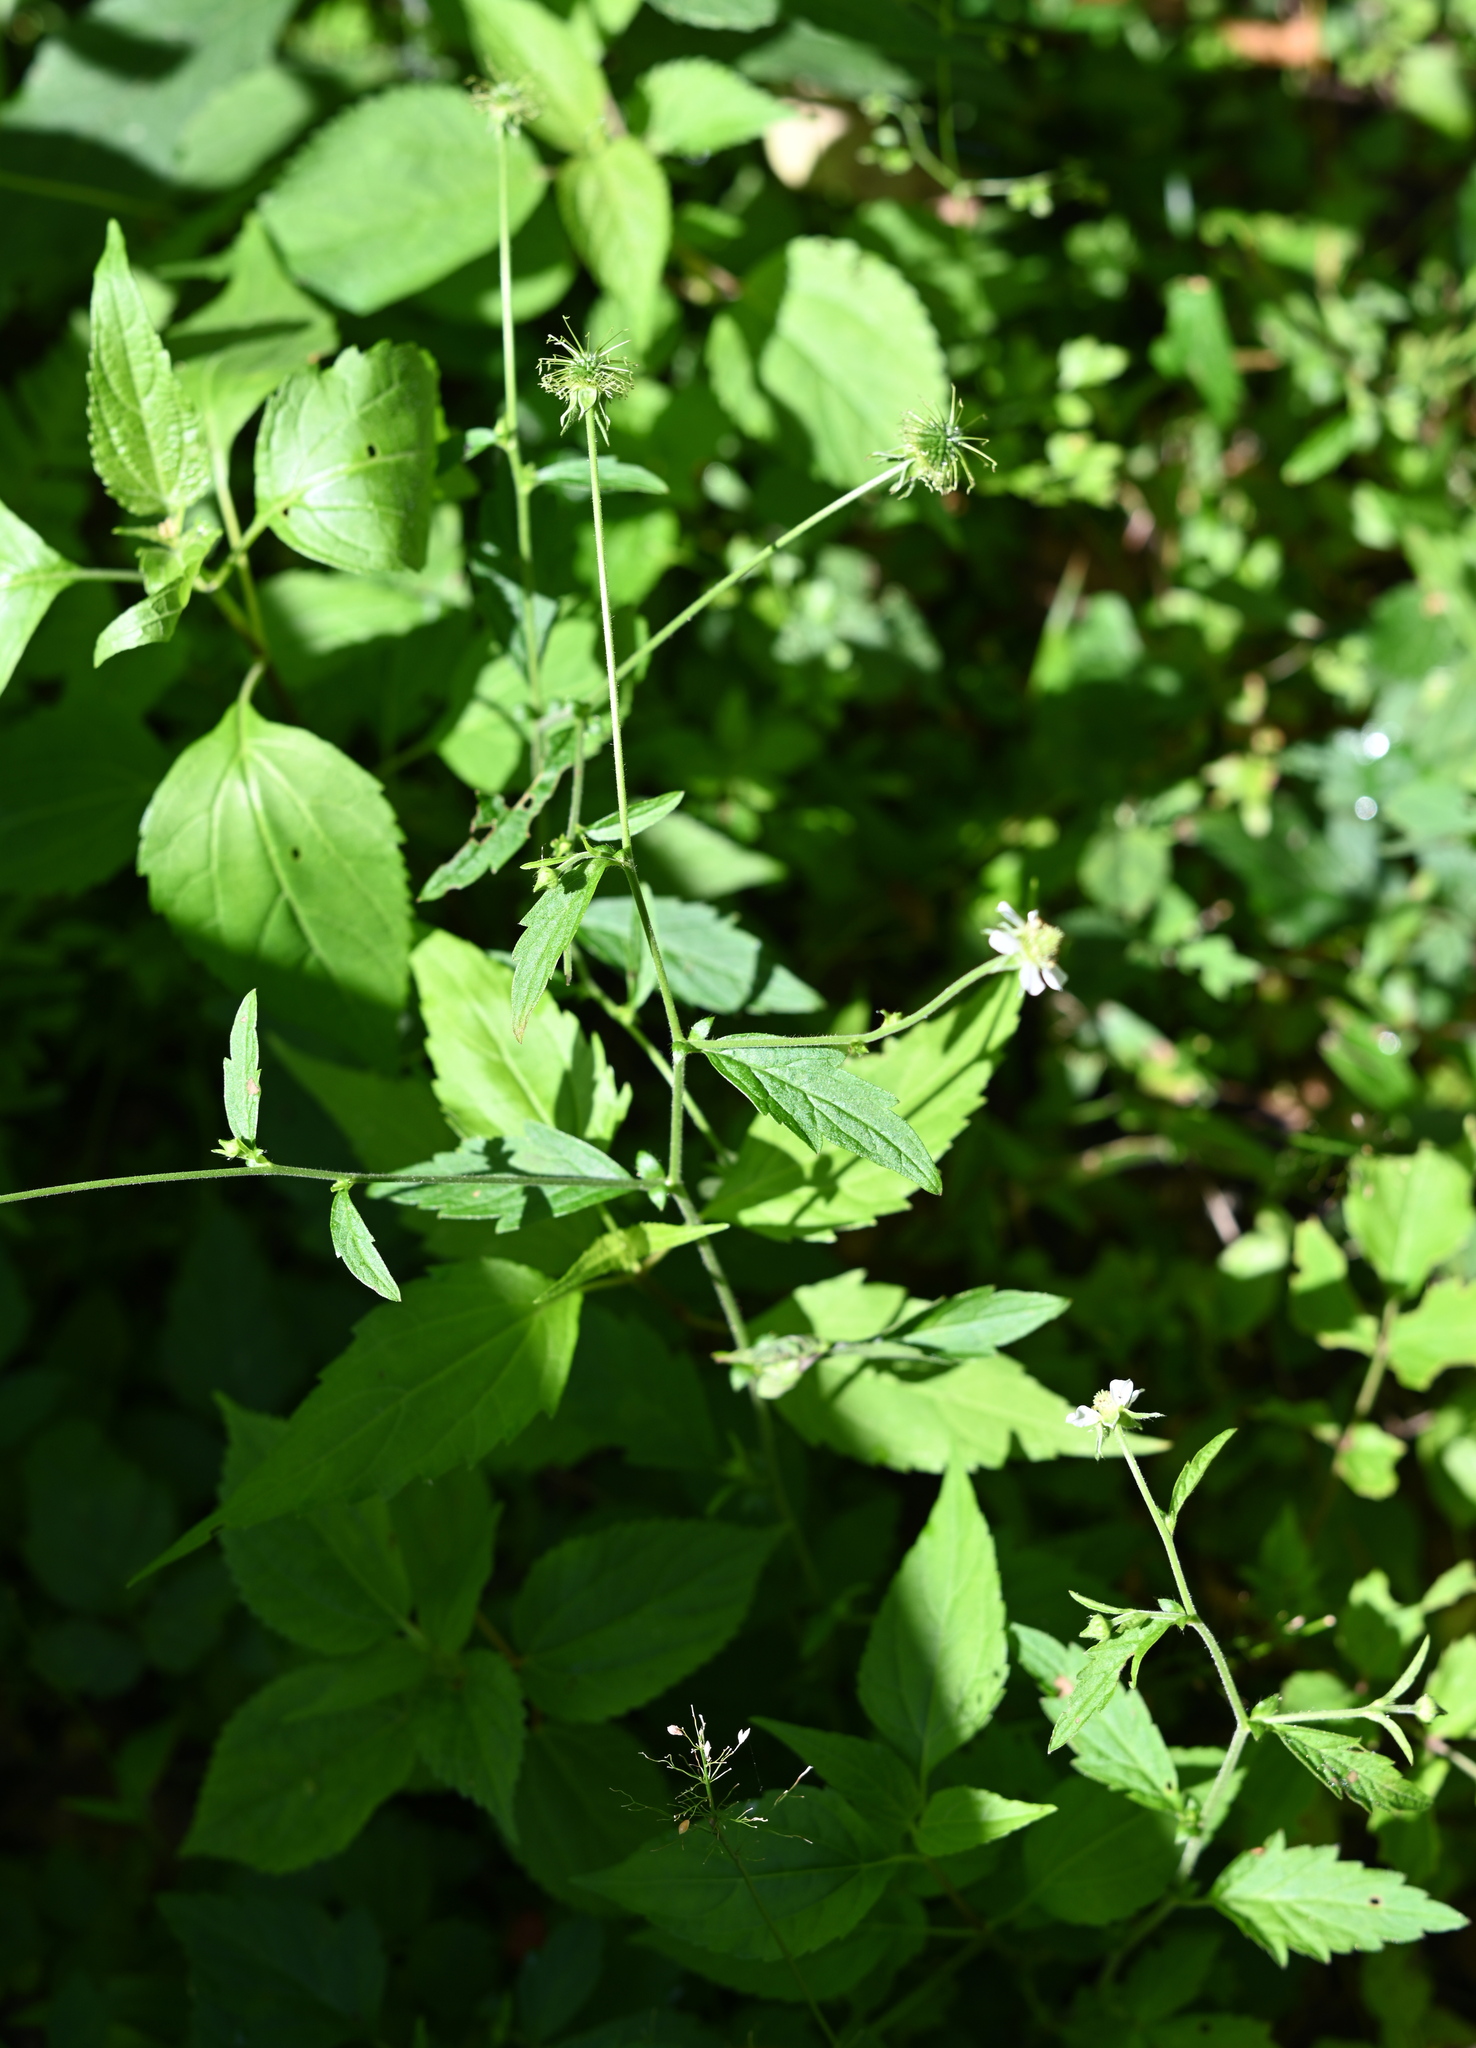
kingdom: Plantae
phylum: Tracheophyta
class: Magnoliopsida
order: Rosales
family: Rosaceae
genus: Geum
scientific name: Geum canadense
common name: White avens
